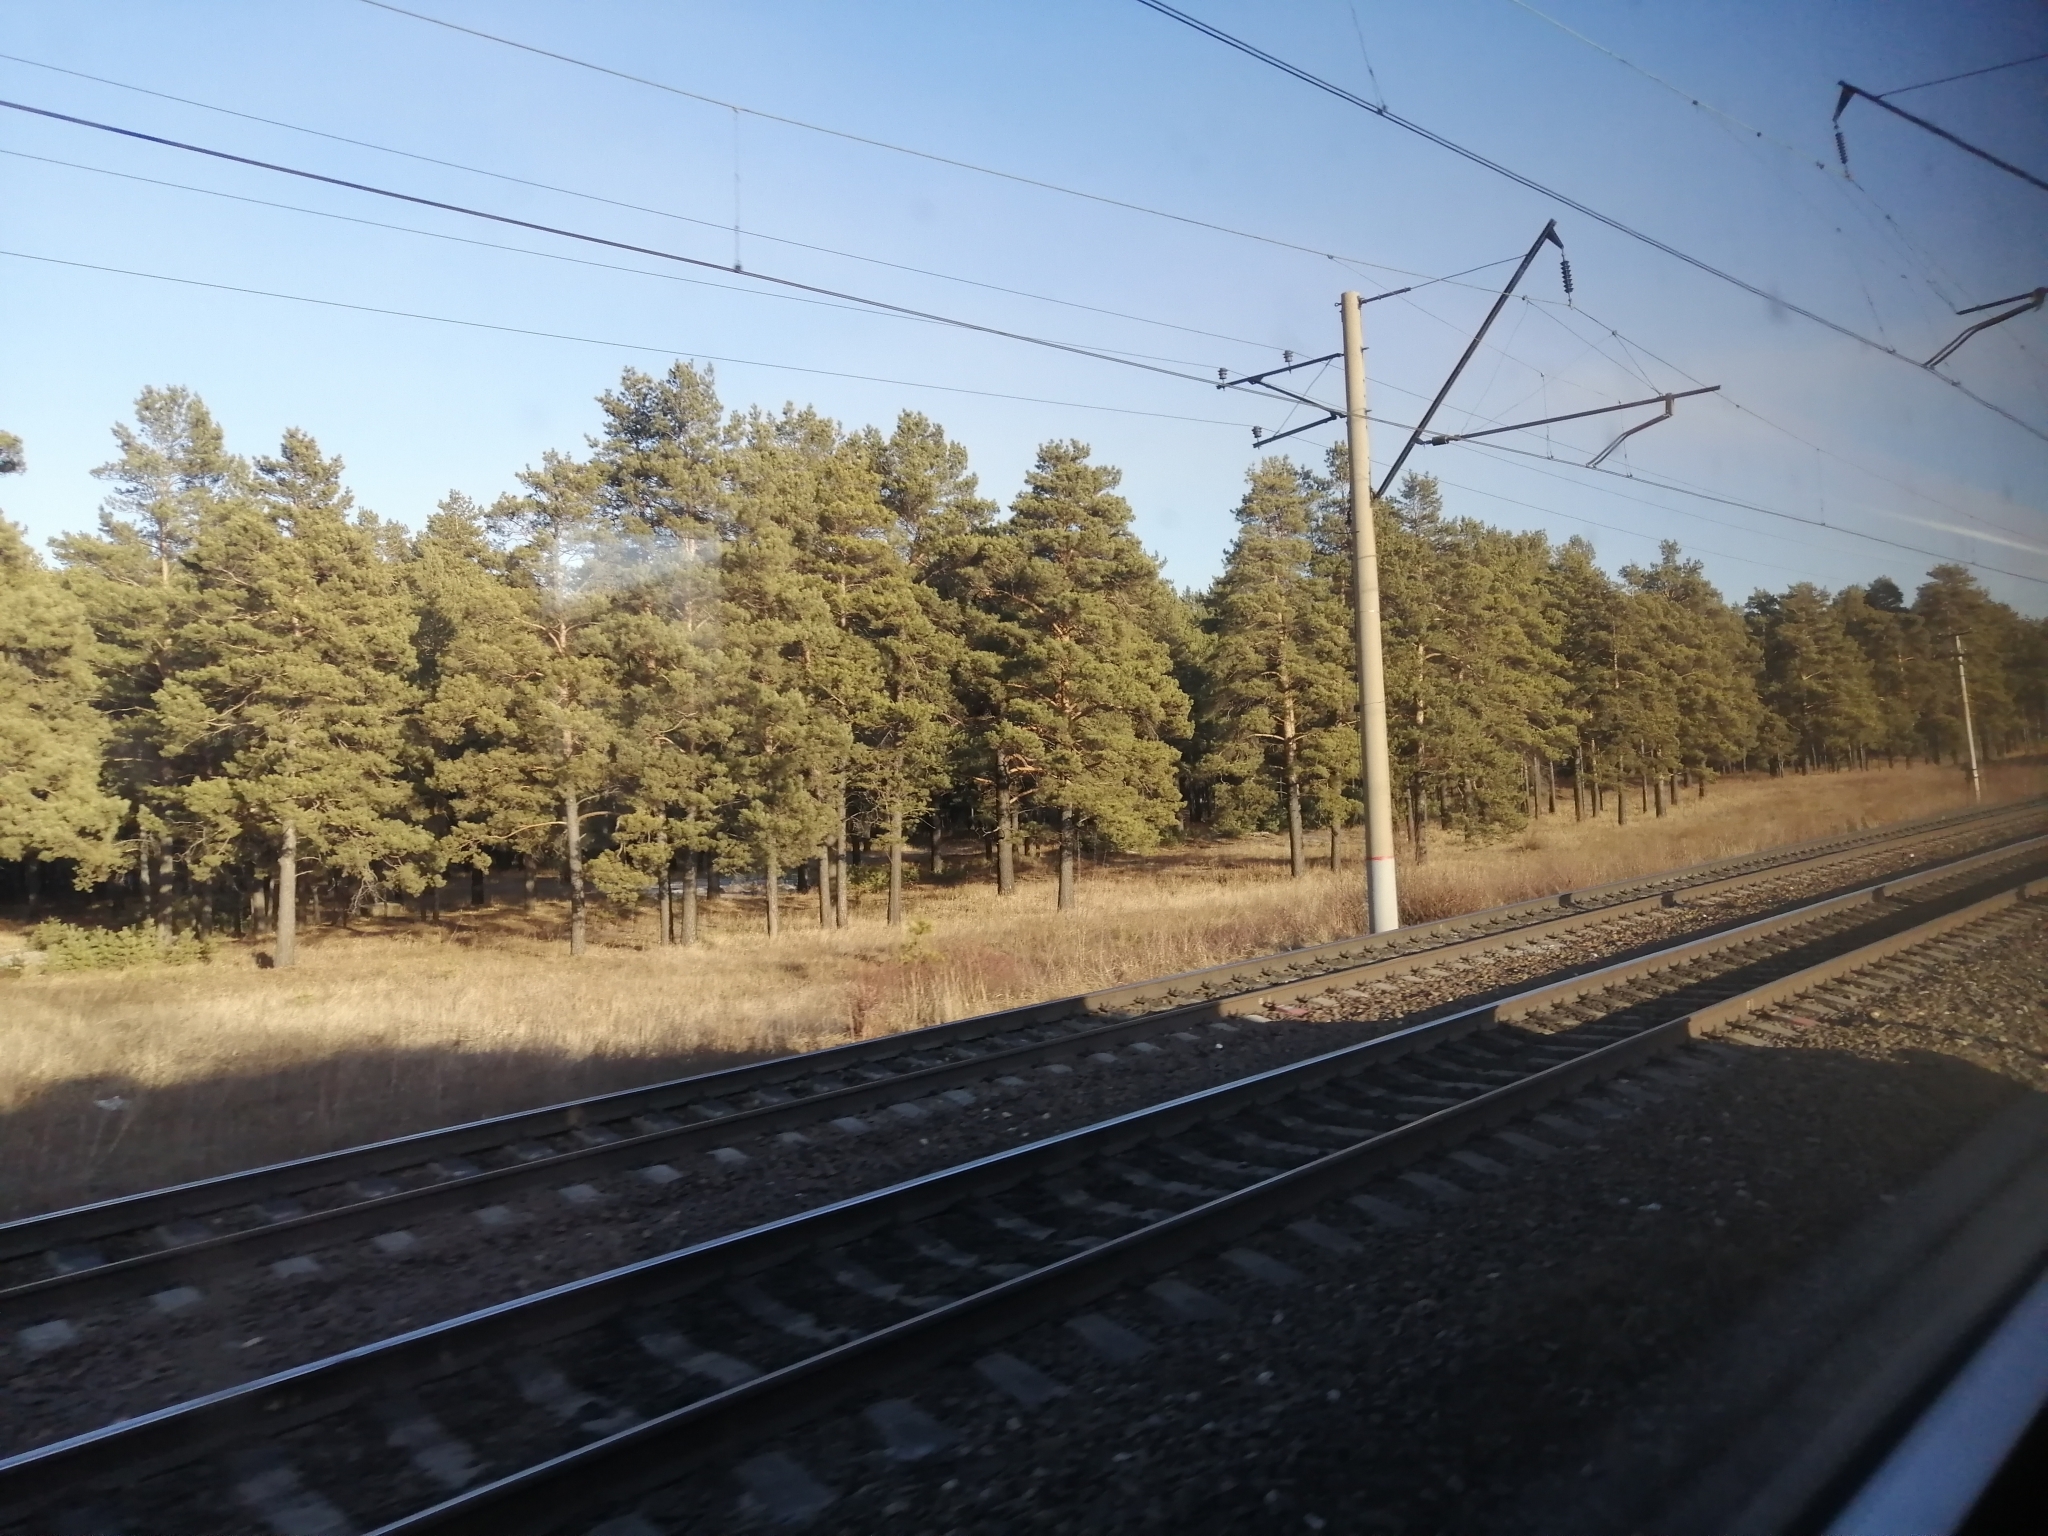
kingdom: Plantae
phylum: Tracheophyta
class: Pinopsida
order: Pinales
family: Pinaceae
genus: Pinus
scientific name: Pinus sylvestris
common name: Scots pine
